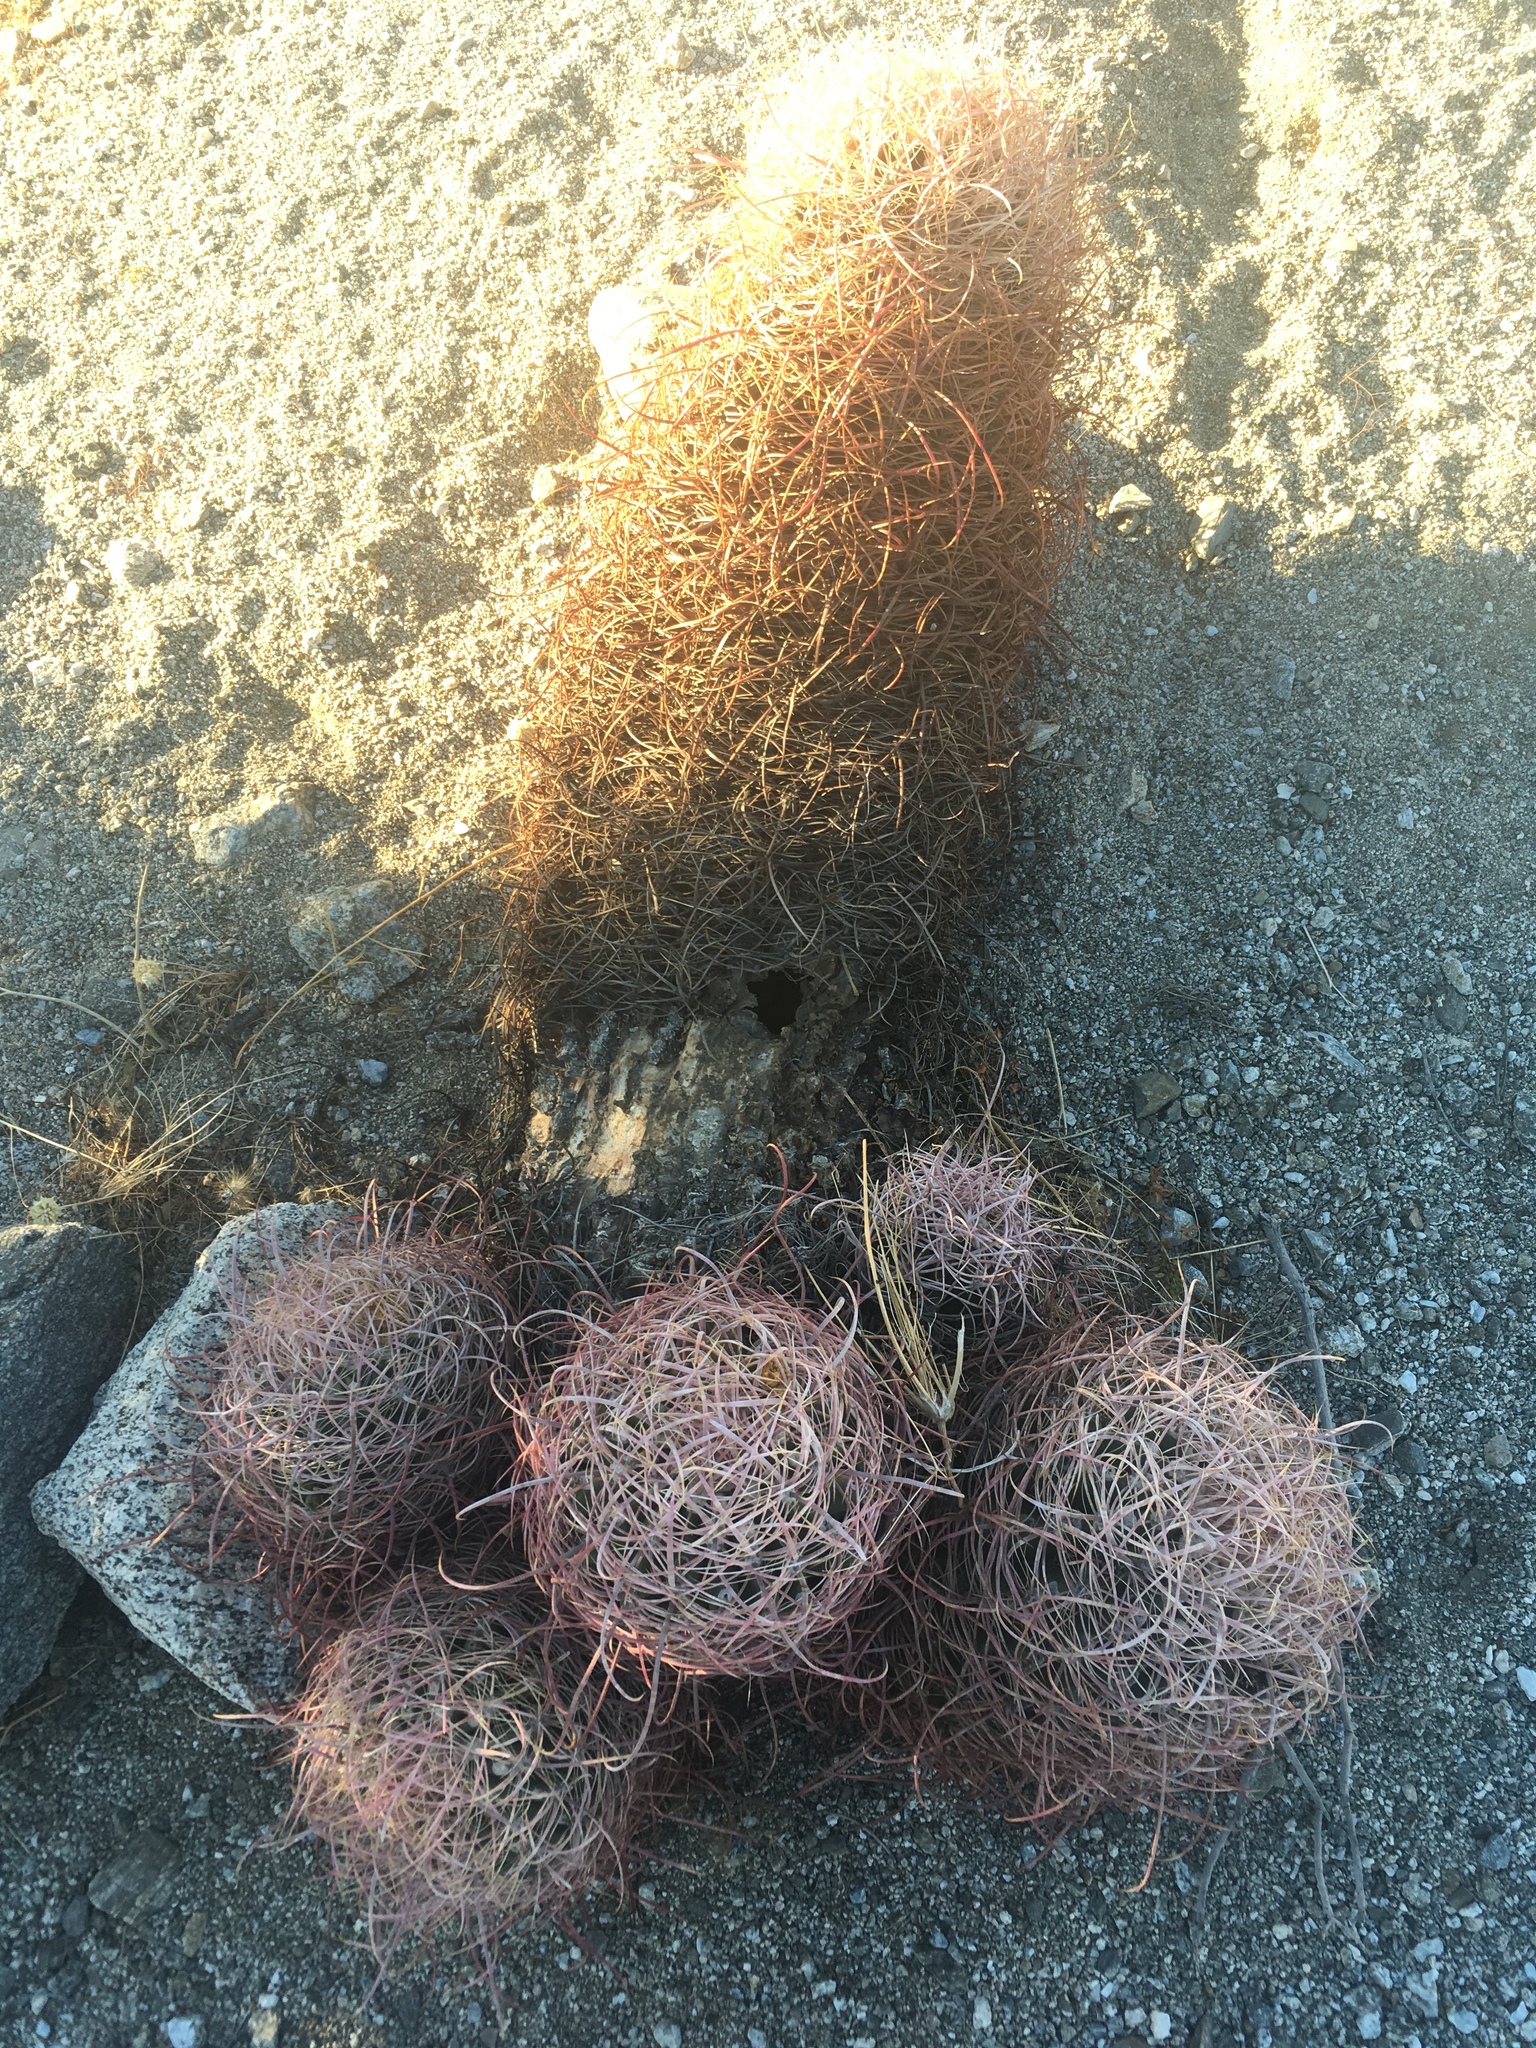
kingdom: Plantae
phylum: Tracheophyta
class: Magnoliopsida
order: Caryophyllales
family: Cactaceae
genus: Ferocactus
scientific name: Ferocactus cylindraceus
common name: California barrel cactus
